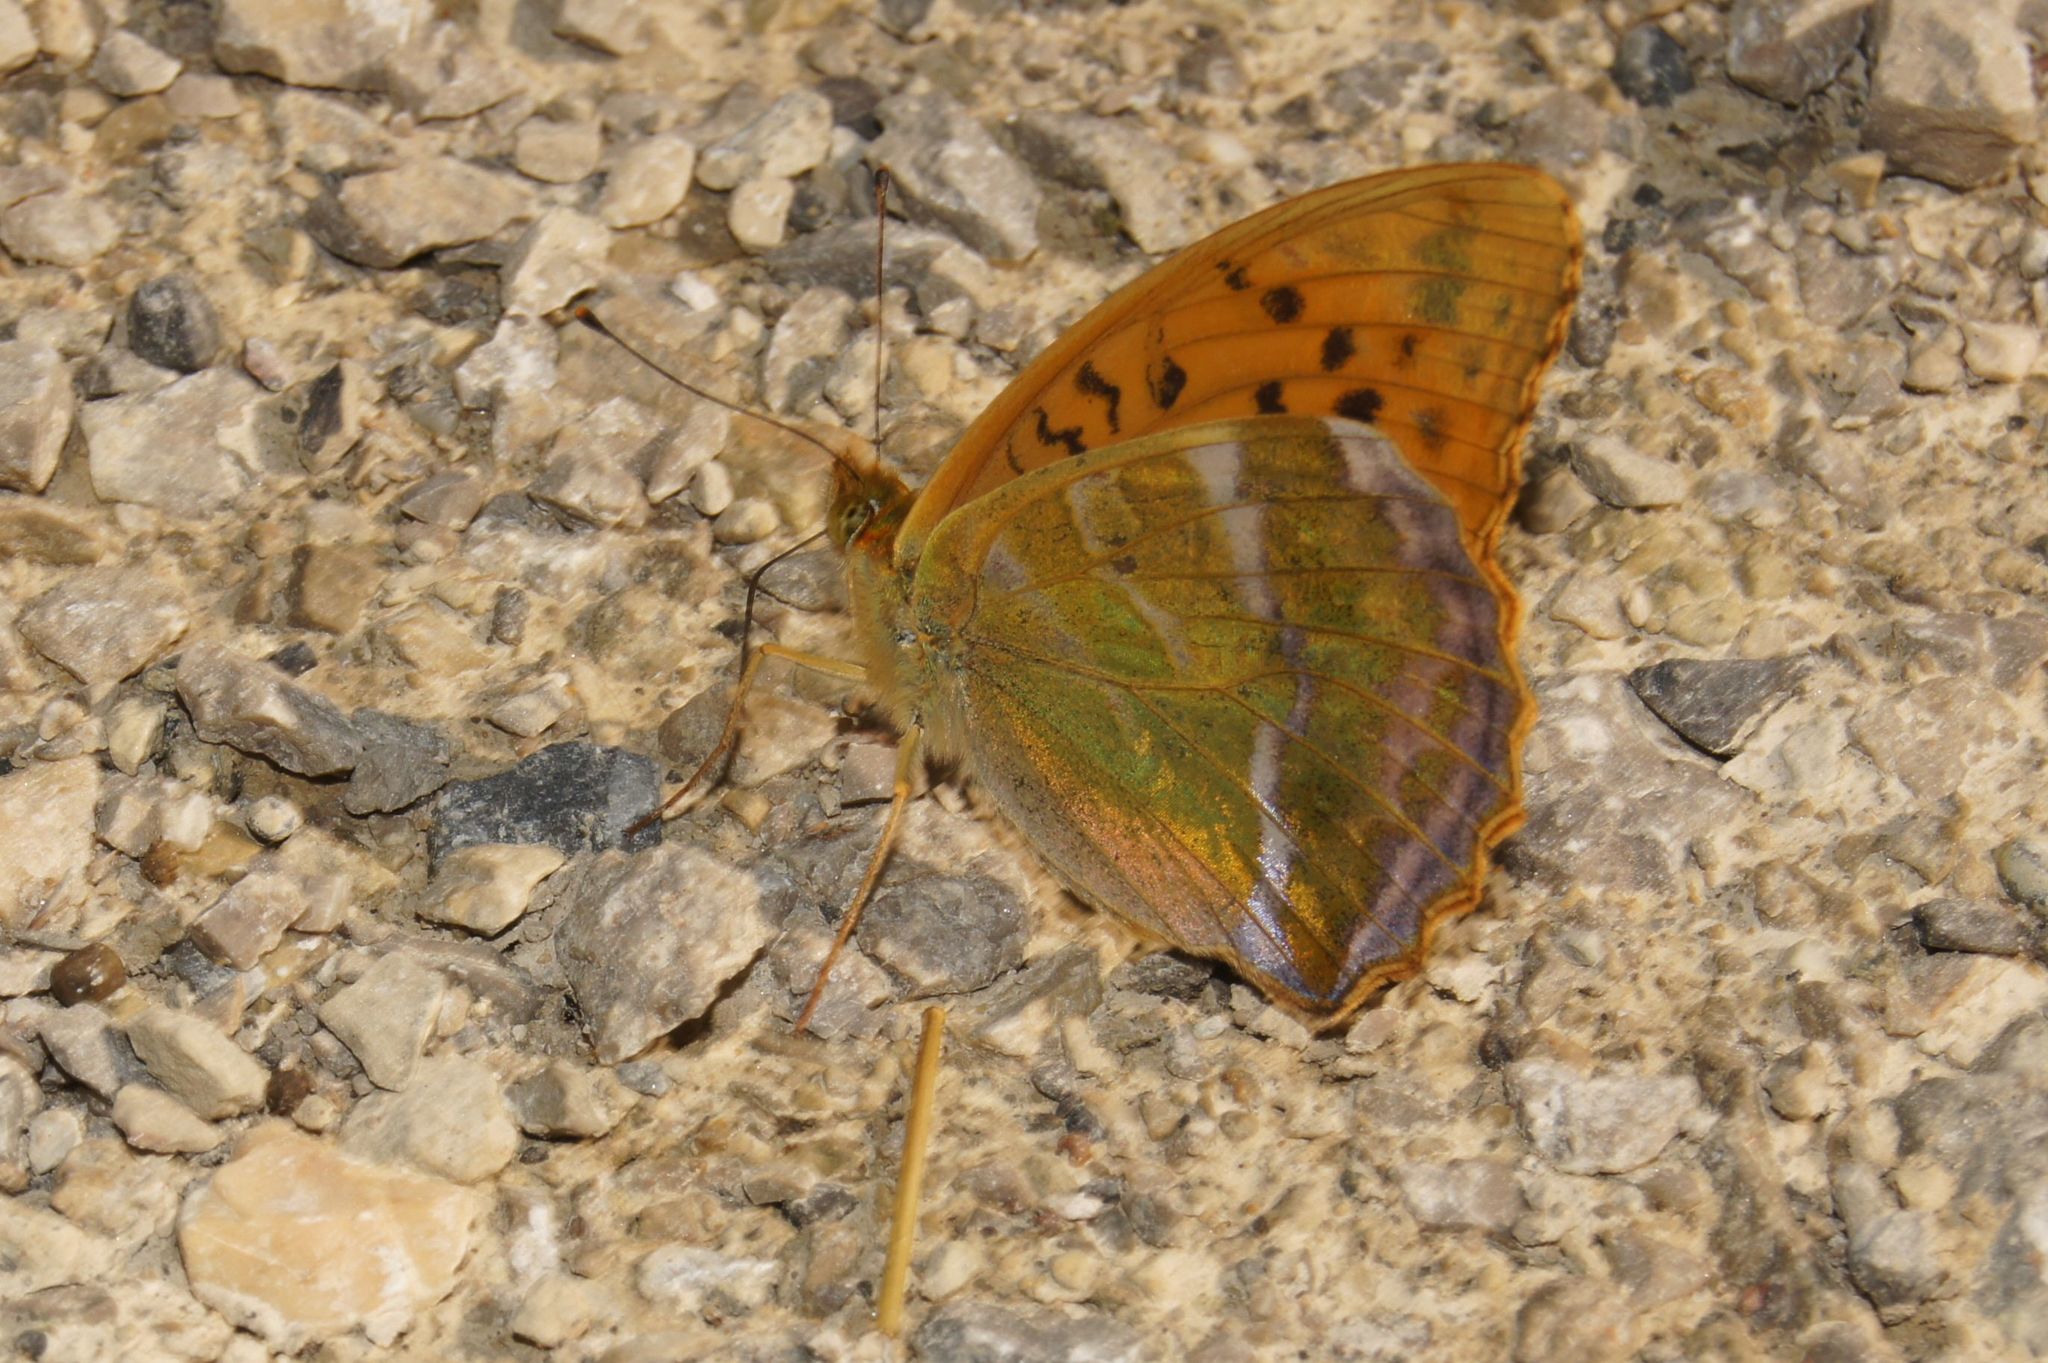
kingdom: Animalia
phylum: Arthropoda
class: Insecta
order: Lepidoptera
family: Nymphalidae
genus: Argynnis
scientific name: Argynnis paphia
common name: Silver-washed fritillary
